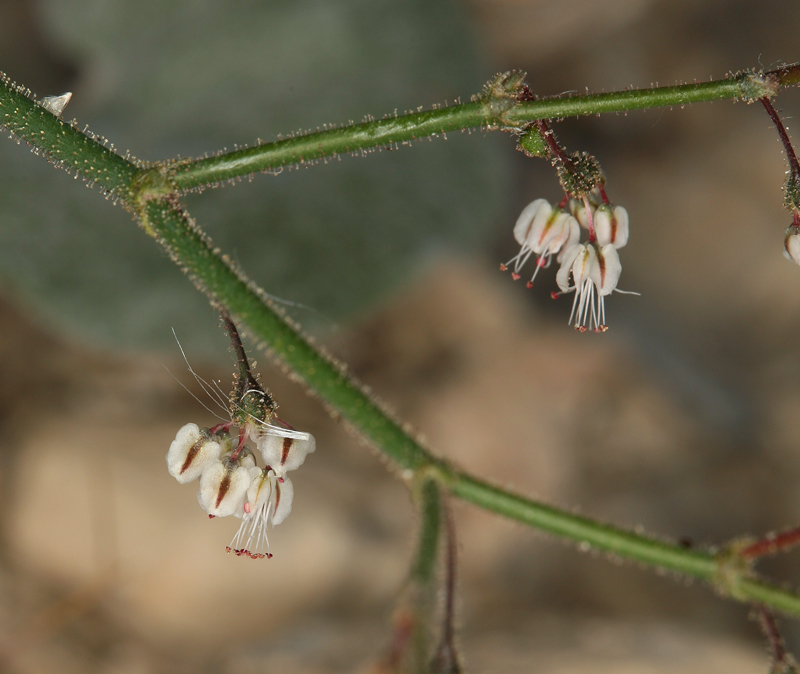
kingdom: Plantae
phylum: Tracheophyta
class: Magnoliopsida
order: Caryophyllales
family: Polygonaceae
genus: Eriogonum
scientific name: Eriogonum brachypodum
